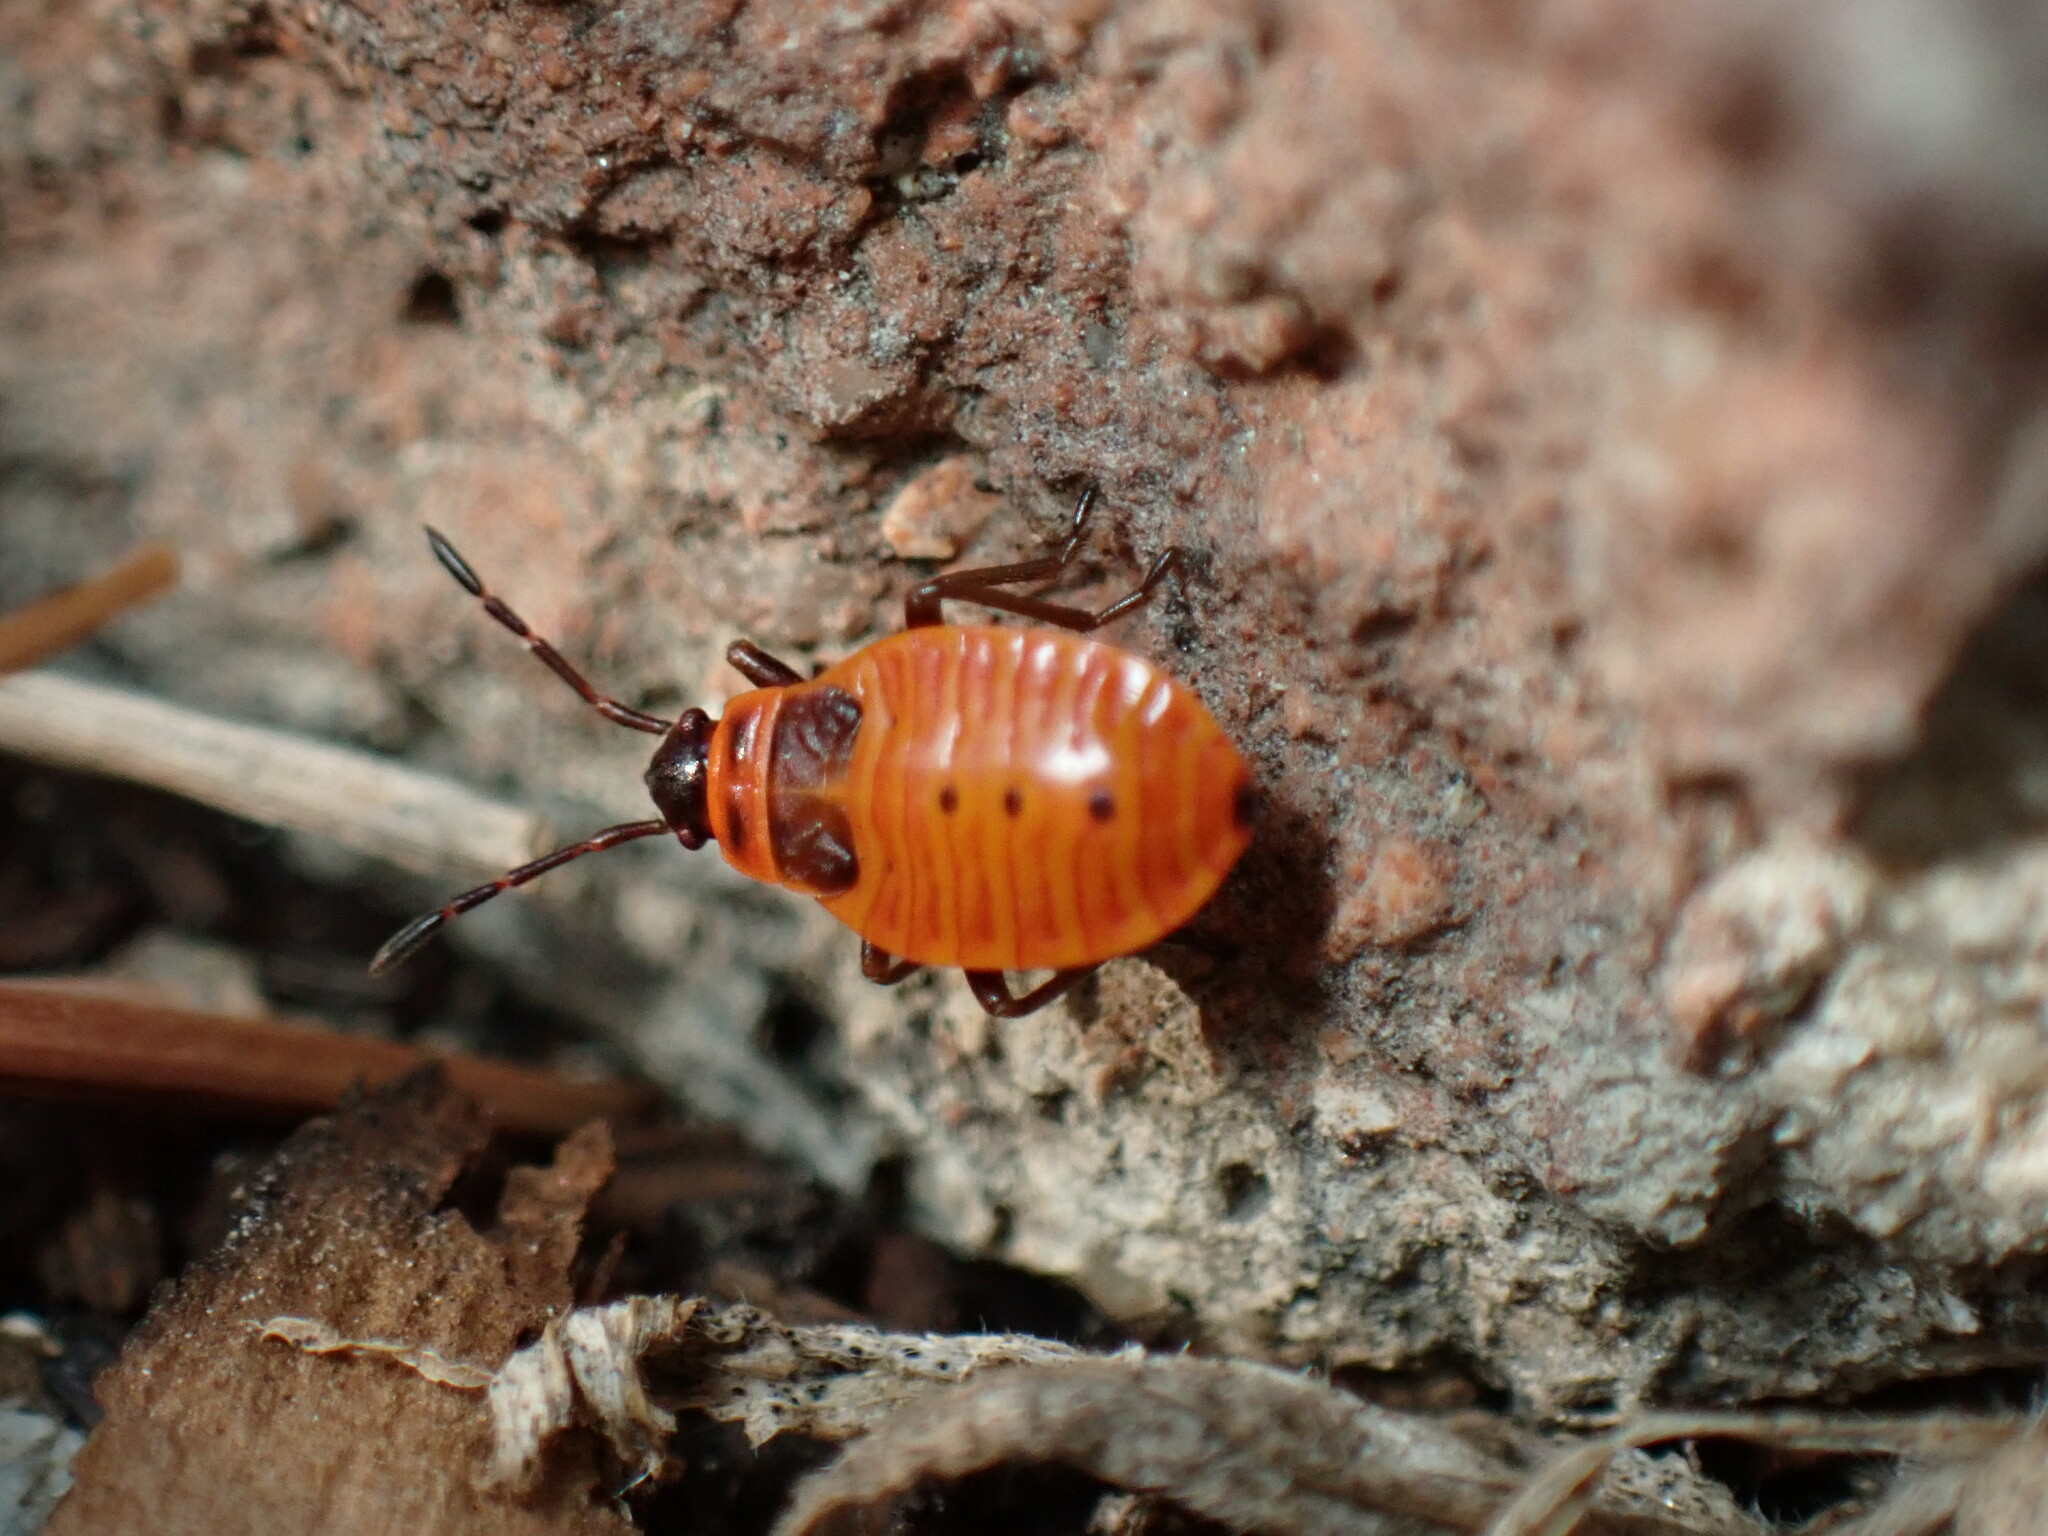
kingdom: Animalia
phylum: Arthropoda
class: Insecta
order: Hemiptera
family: Pyrrhocoridae
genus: Pyrrhocoris
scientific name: Pyrrhocoris apterus
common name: Firebug
